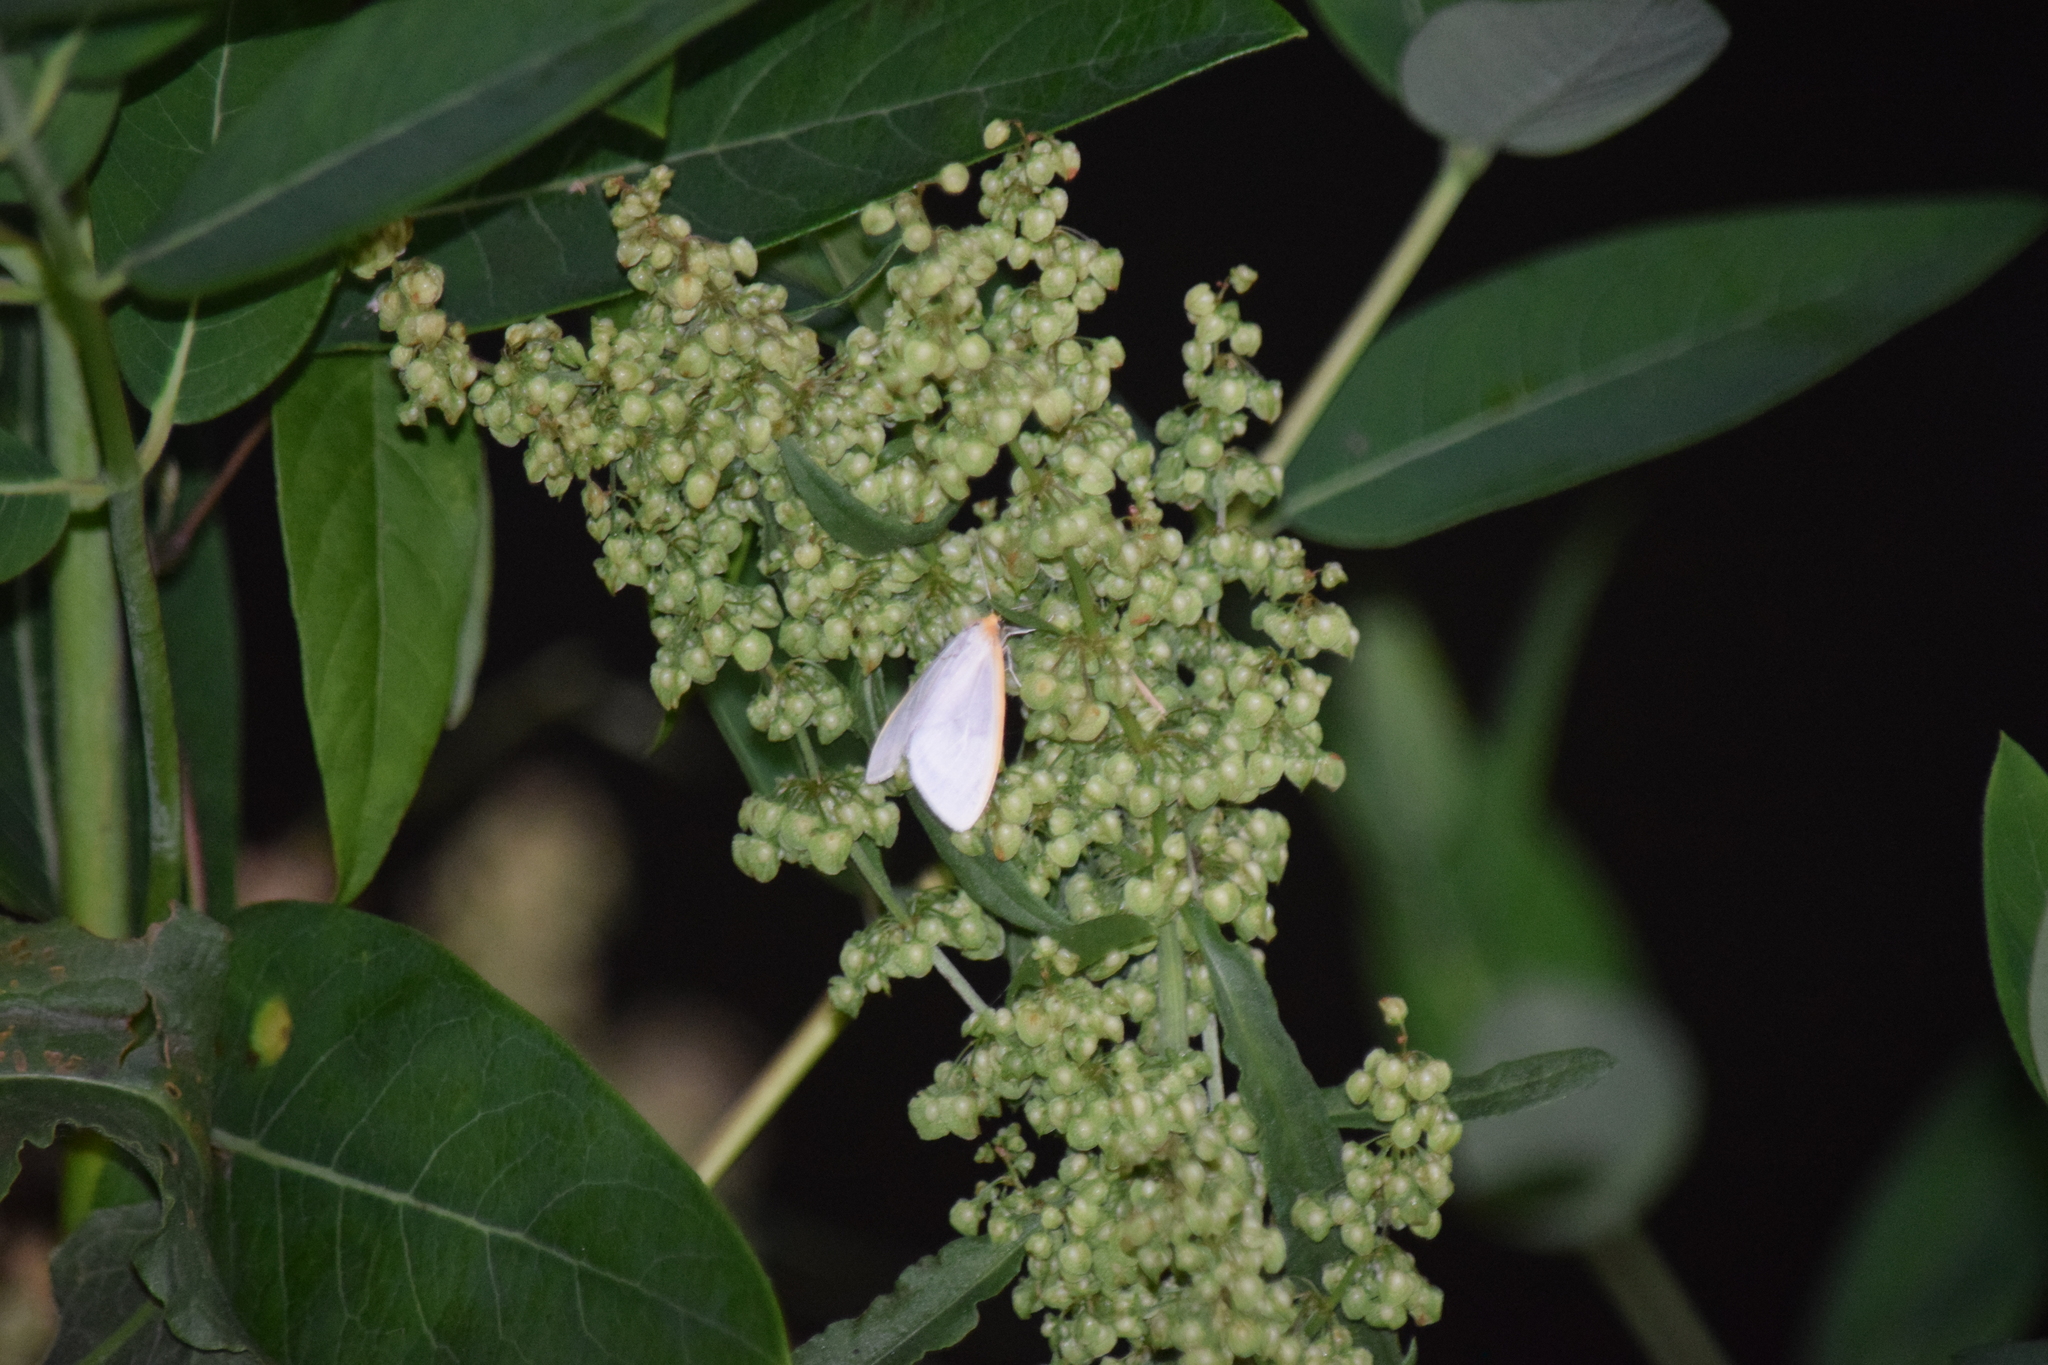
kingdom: Animalia
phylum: Arthropoda
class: Insecta
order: Lepidoptera
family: Erebidae
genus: Cycnia
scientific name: Cycnia tenera
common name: Delicate cycnia moth
